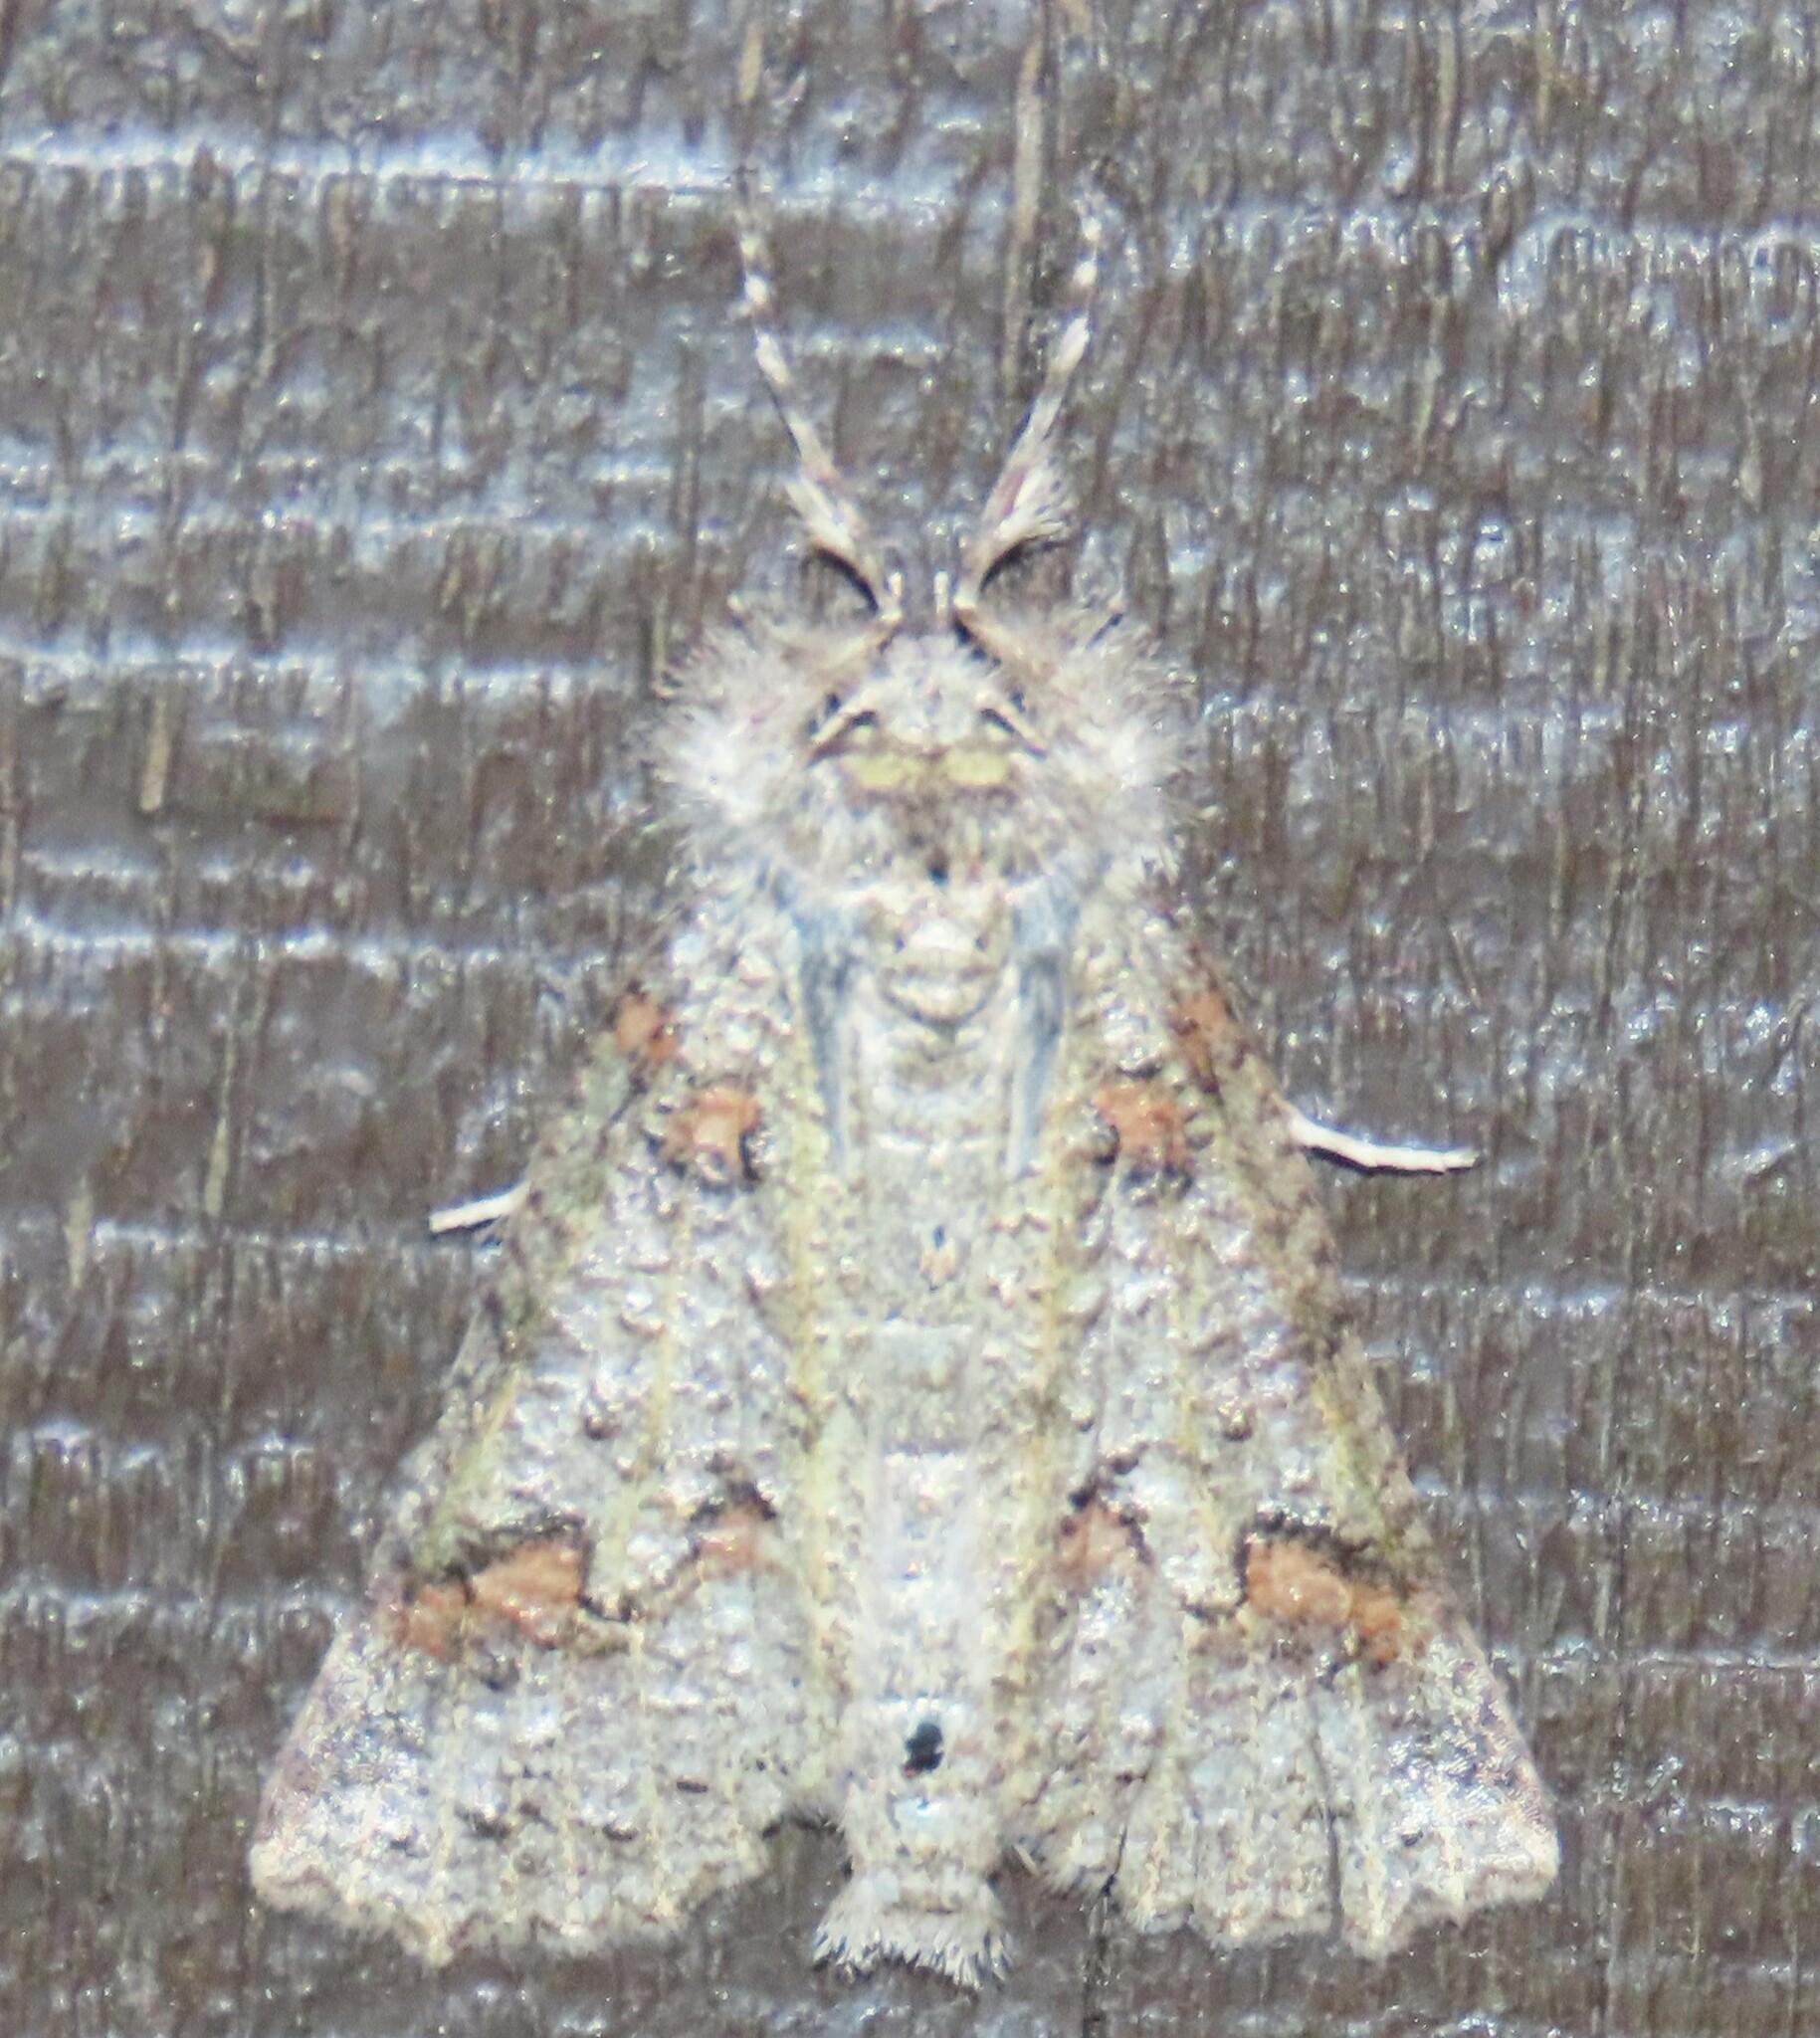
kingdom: Animalia
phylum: Arthropoda
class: Insecta
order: Lepidoptera
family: Geometridae
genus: Declana
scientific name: Declana floccosa
